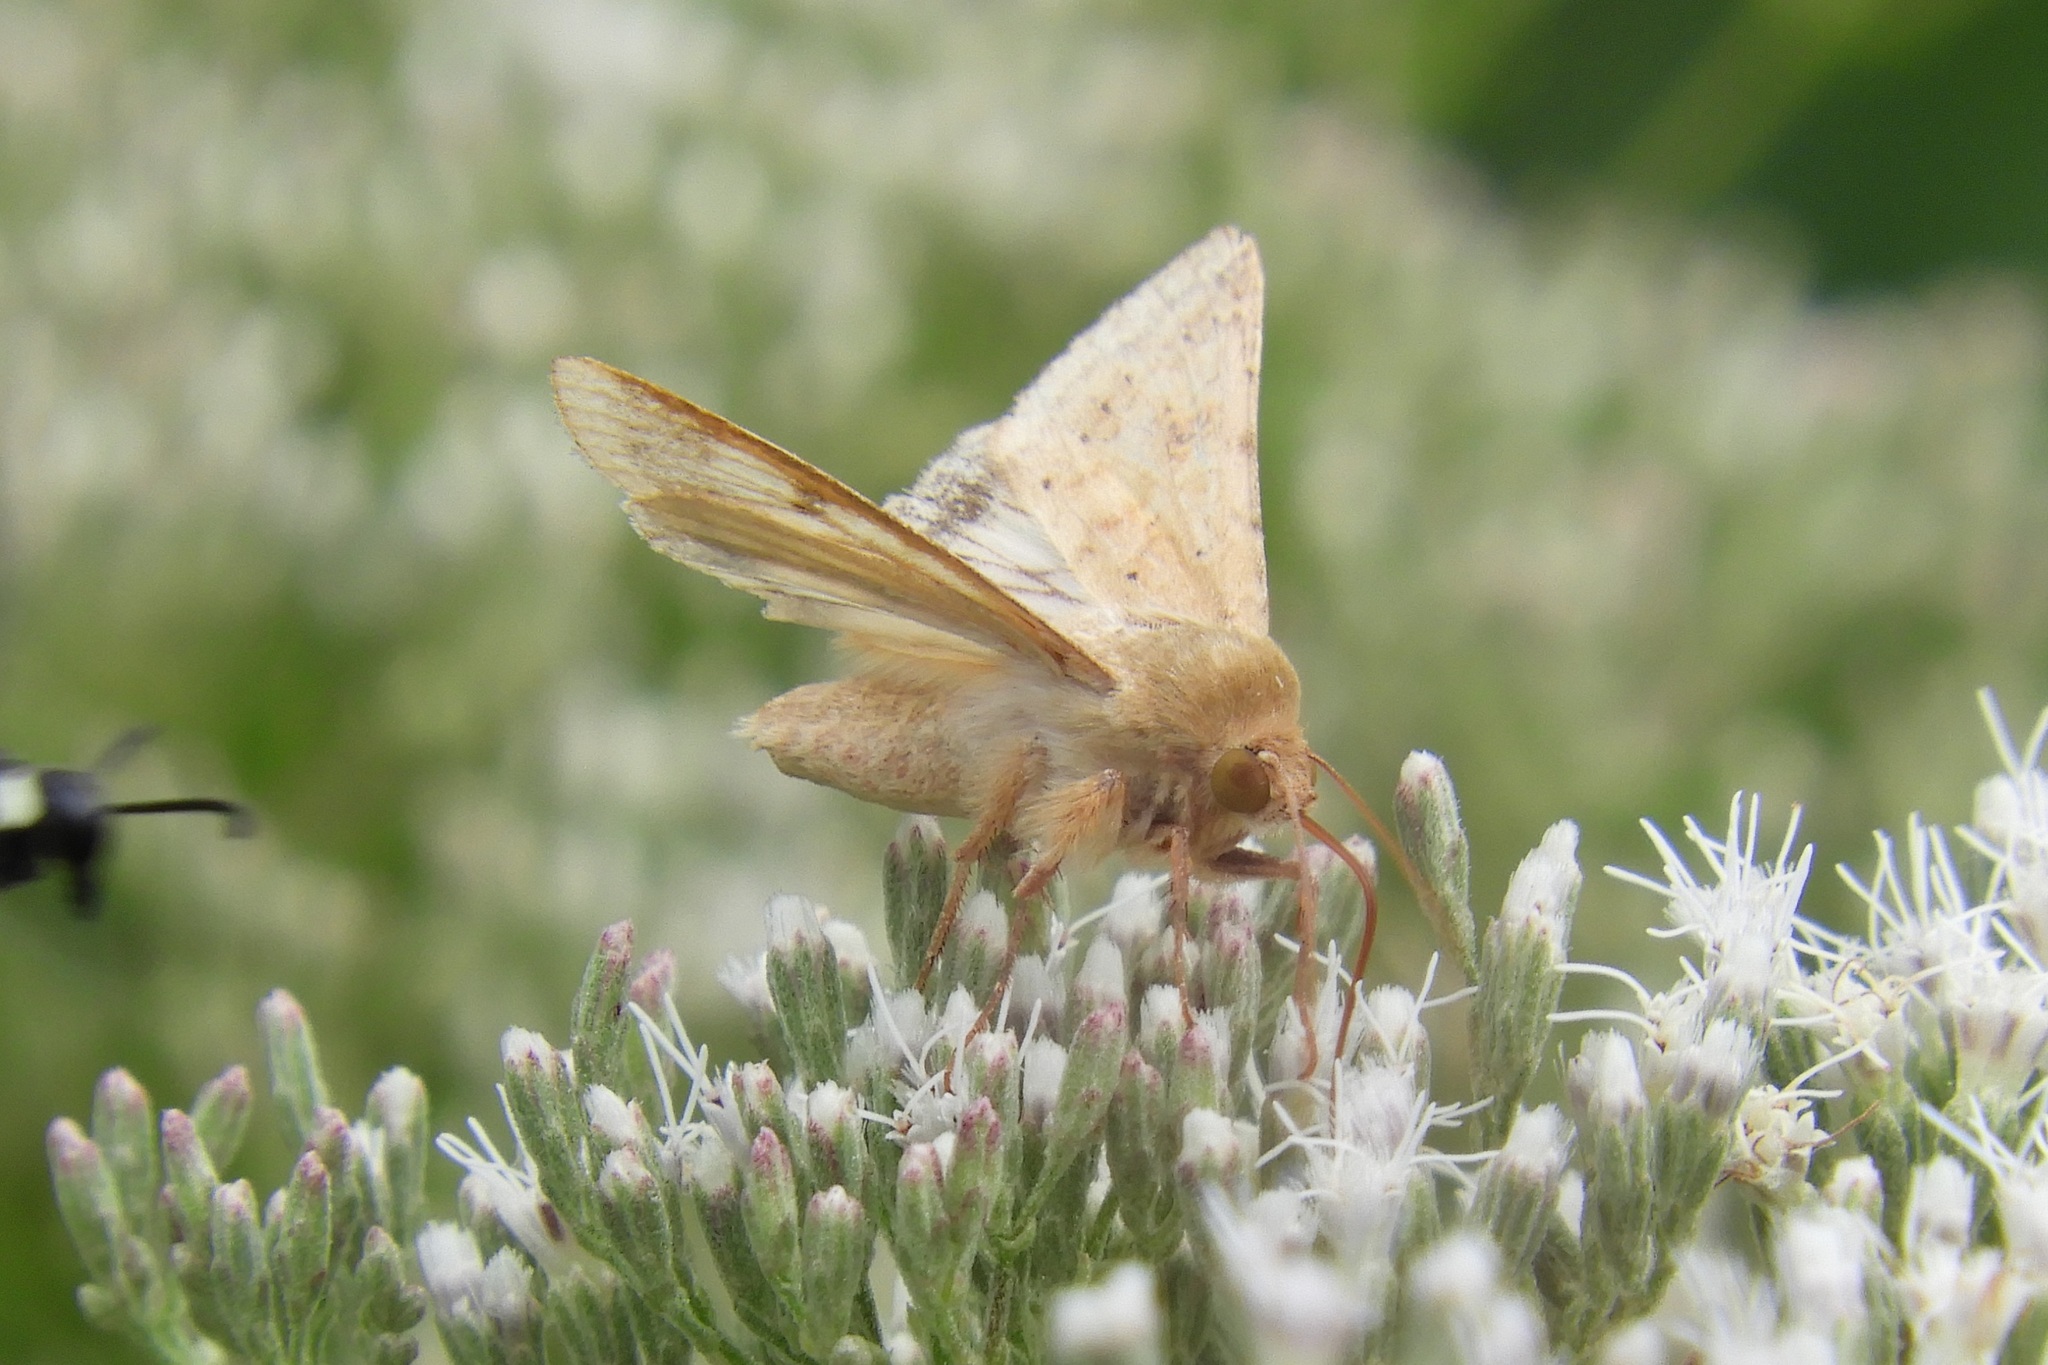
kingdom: Animalia
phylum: Arthropoda
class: Insecta
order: Lepidoptera
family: Noctuidae
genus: Helicoverpa
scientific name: Helicoverpa zea
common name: Bollworm
